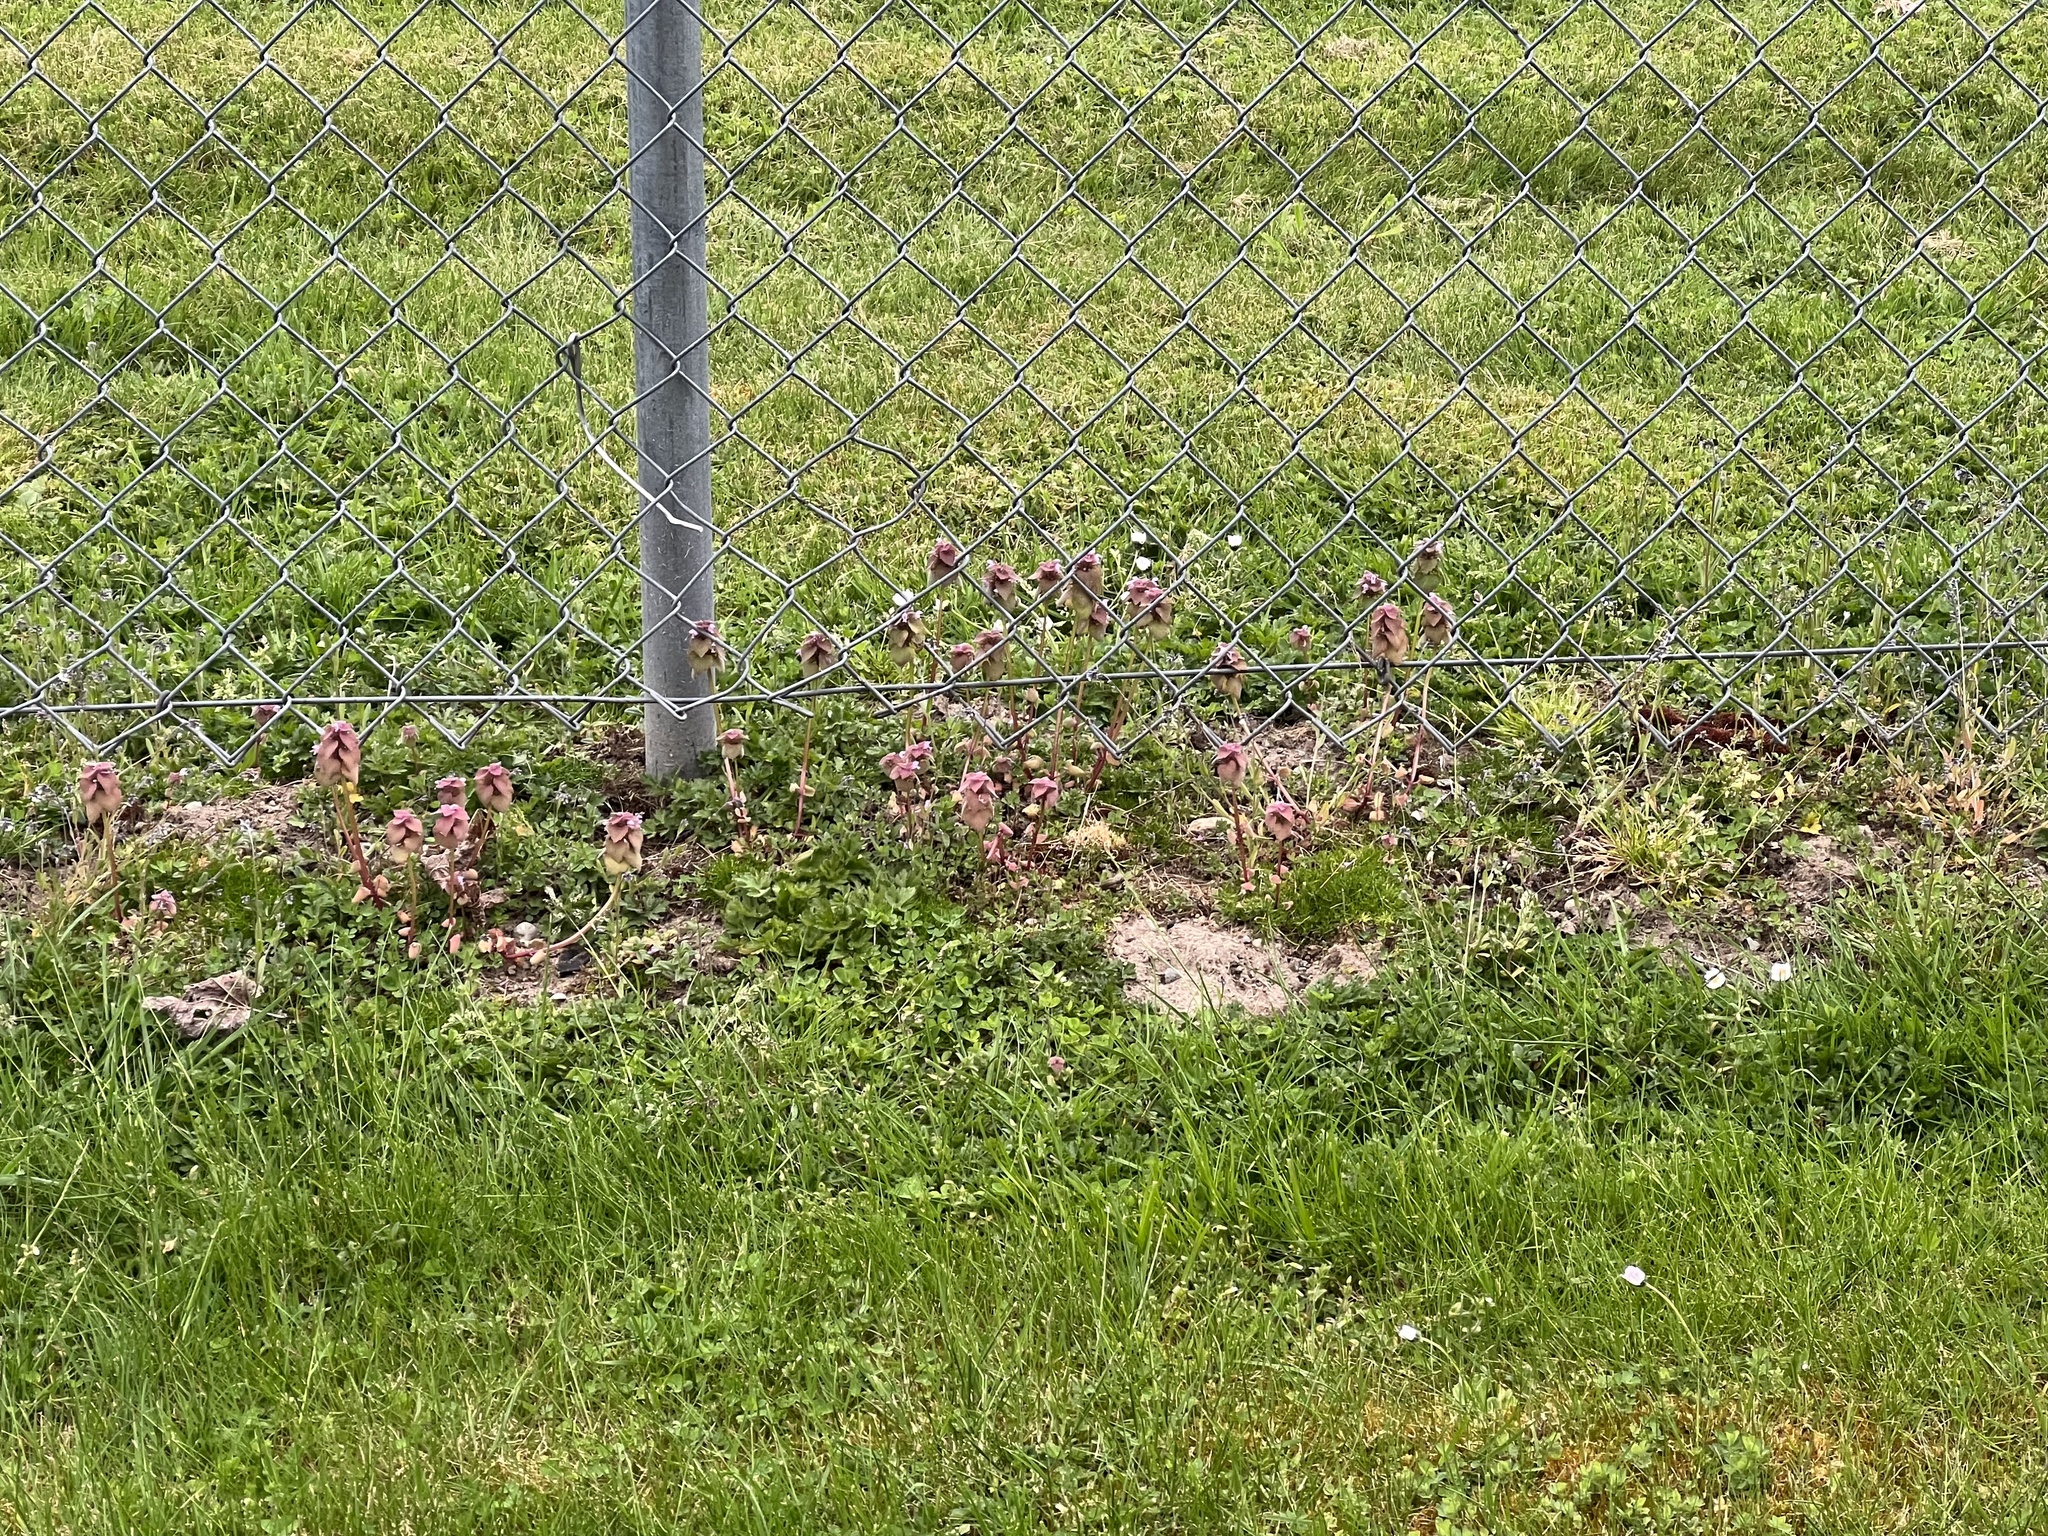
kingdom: Plantae
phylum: Tracheophyta
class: Magnoliopsida
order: Lamiales
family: Lamiaceae
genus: Lamium
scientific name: Lamium purpureum
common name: Red dead-nettle
